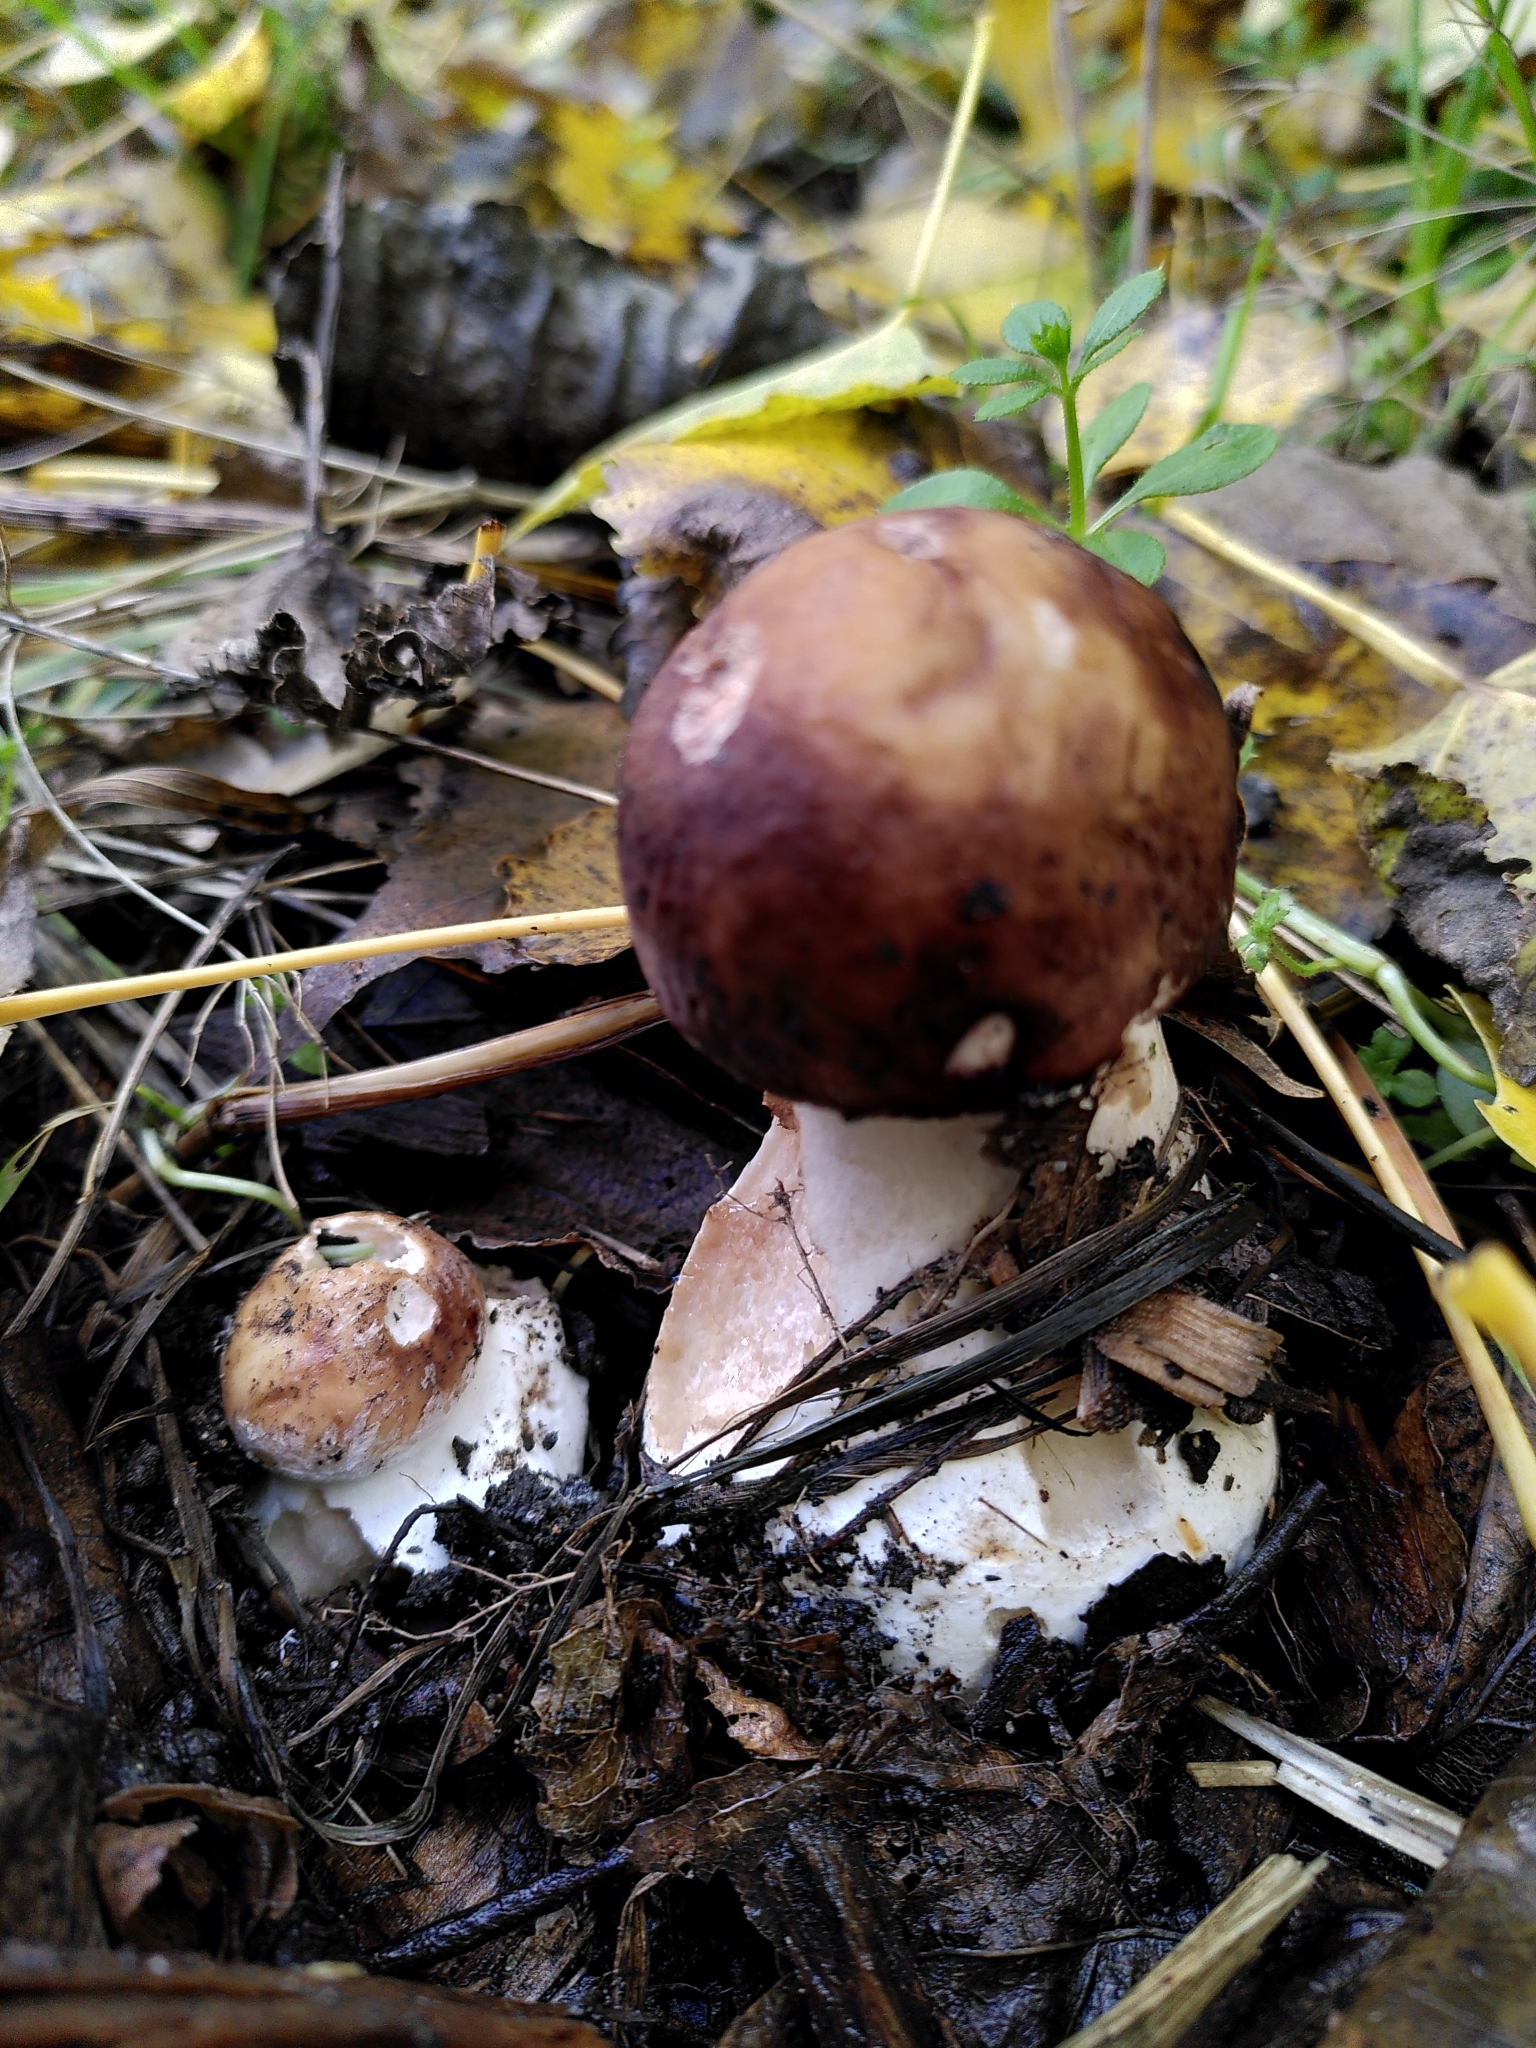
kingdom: Fungi
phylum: Basidiomycota
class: Agaricomycetes
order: Boletales
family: Boletaceae
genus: Boletus
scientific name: Boletus edulis
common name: Cep
